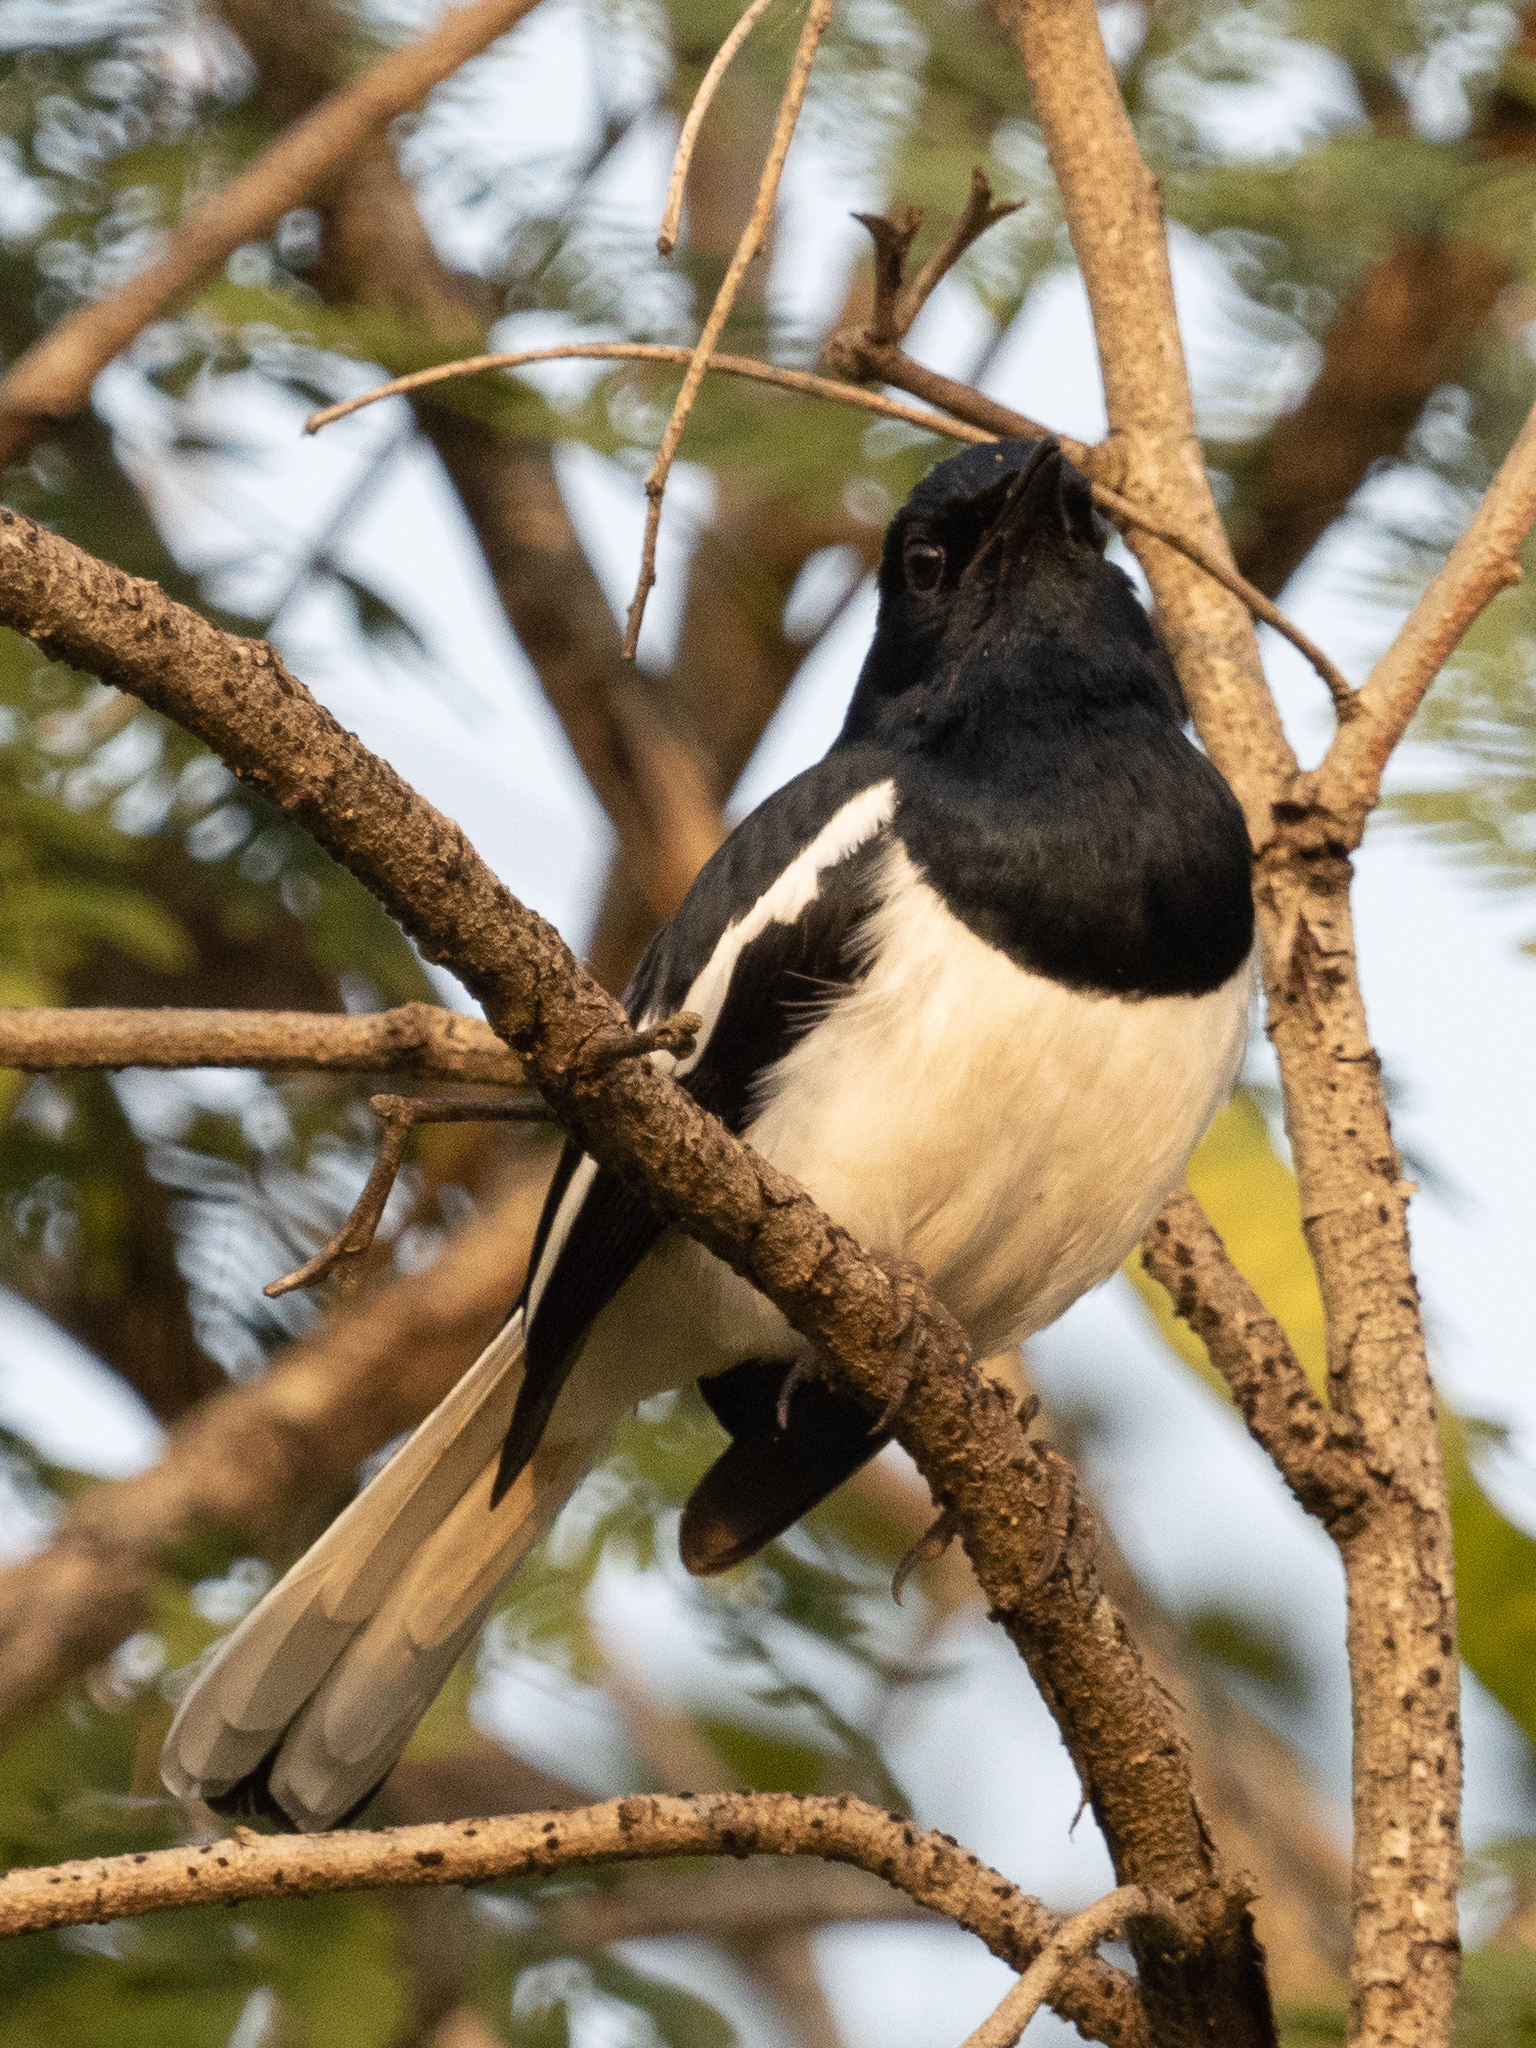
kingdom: Animalia
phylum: Chordata
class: Aves
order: Passeriformes
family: Muscicapidae
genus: Copsychus
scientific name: Copsychus saularis
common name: Oriental magpie-robin
